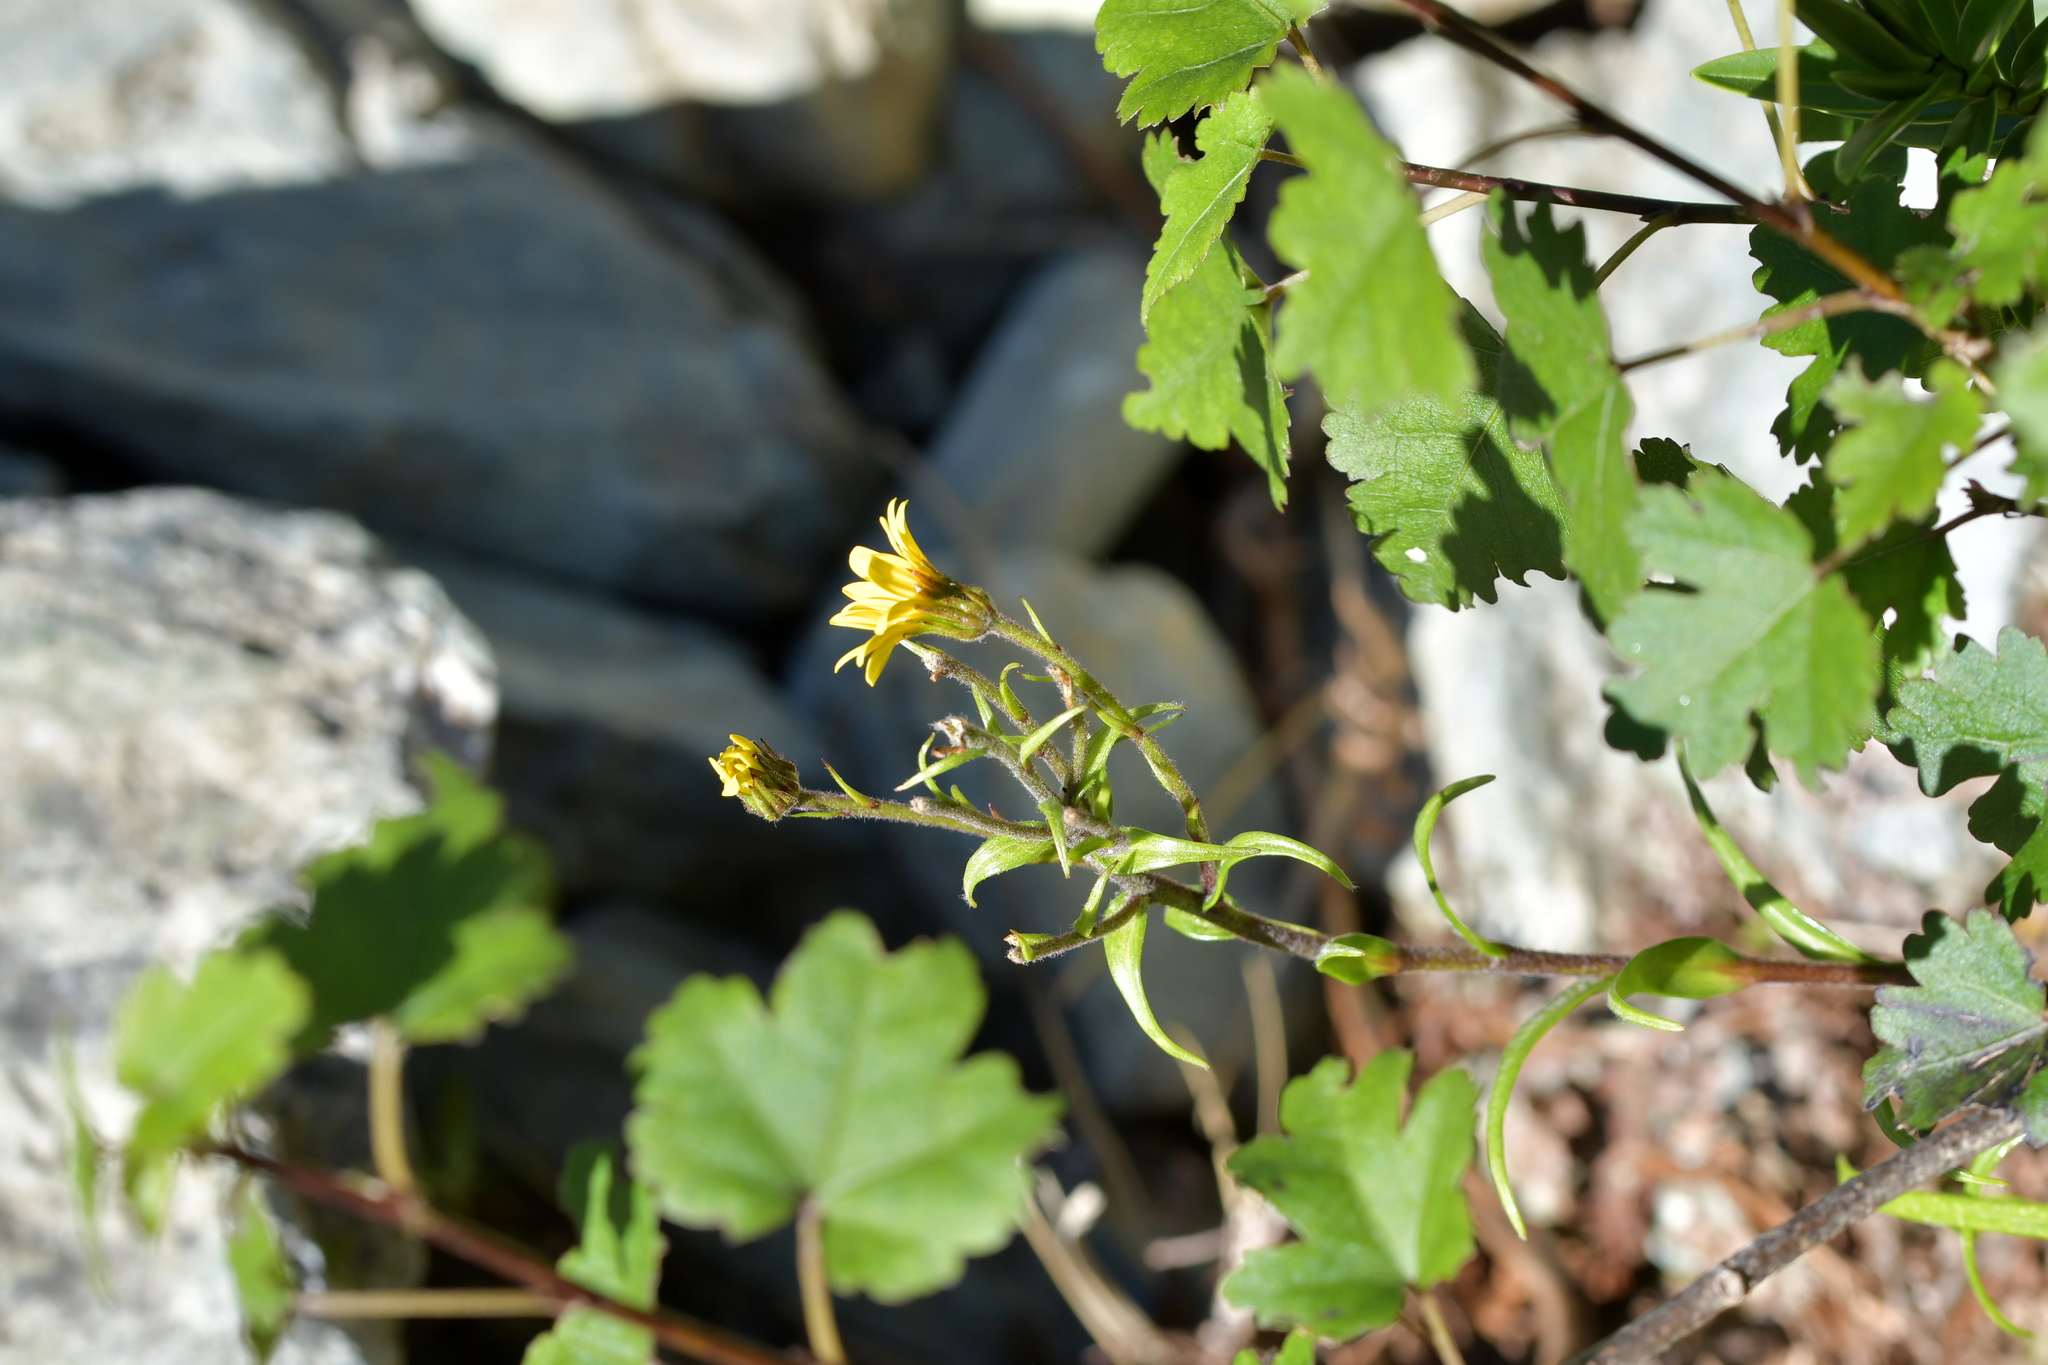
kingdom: Plantae
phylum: Tracheophyta
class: Magnoliopsida
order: Asterales
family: Asteraceae
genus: Dolichoglottis
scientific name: Dolichoglottis lyallii
